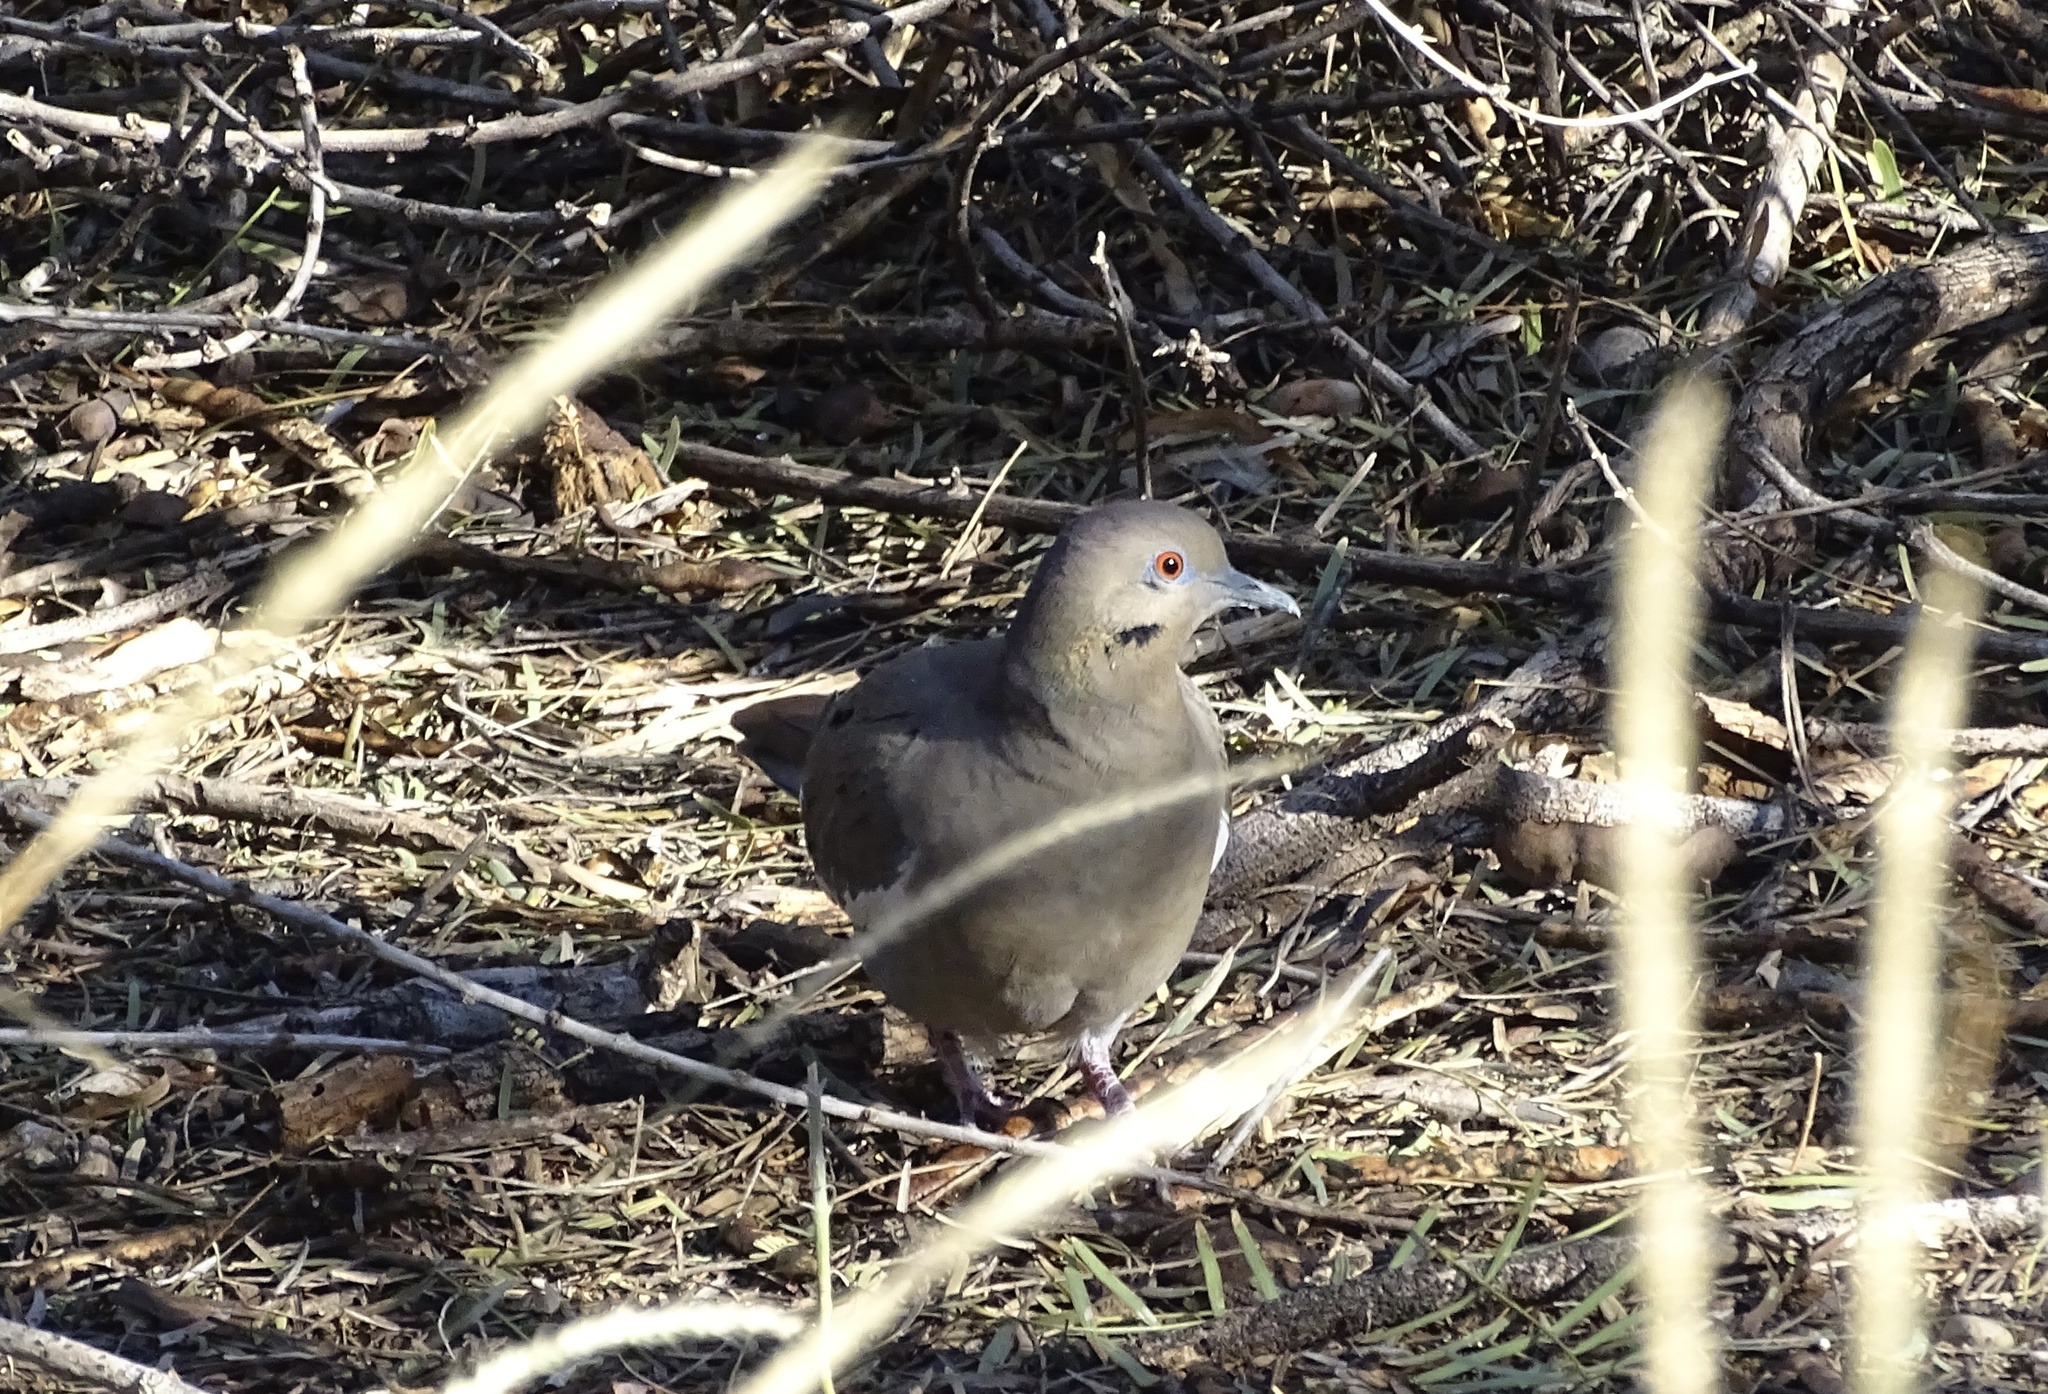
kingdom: Animalia
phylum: Chordata
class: Aves
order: Columbiformes
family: Columbidae
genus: Zenaida
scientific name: Zenaida asiatica
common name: White-winged dove
